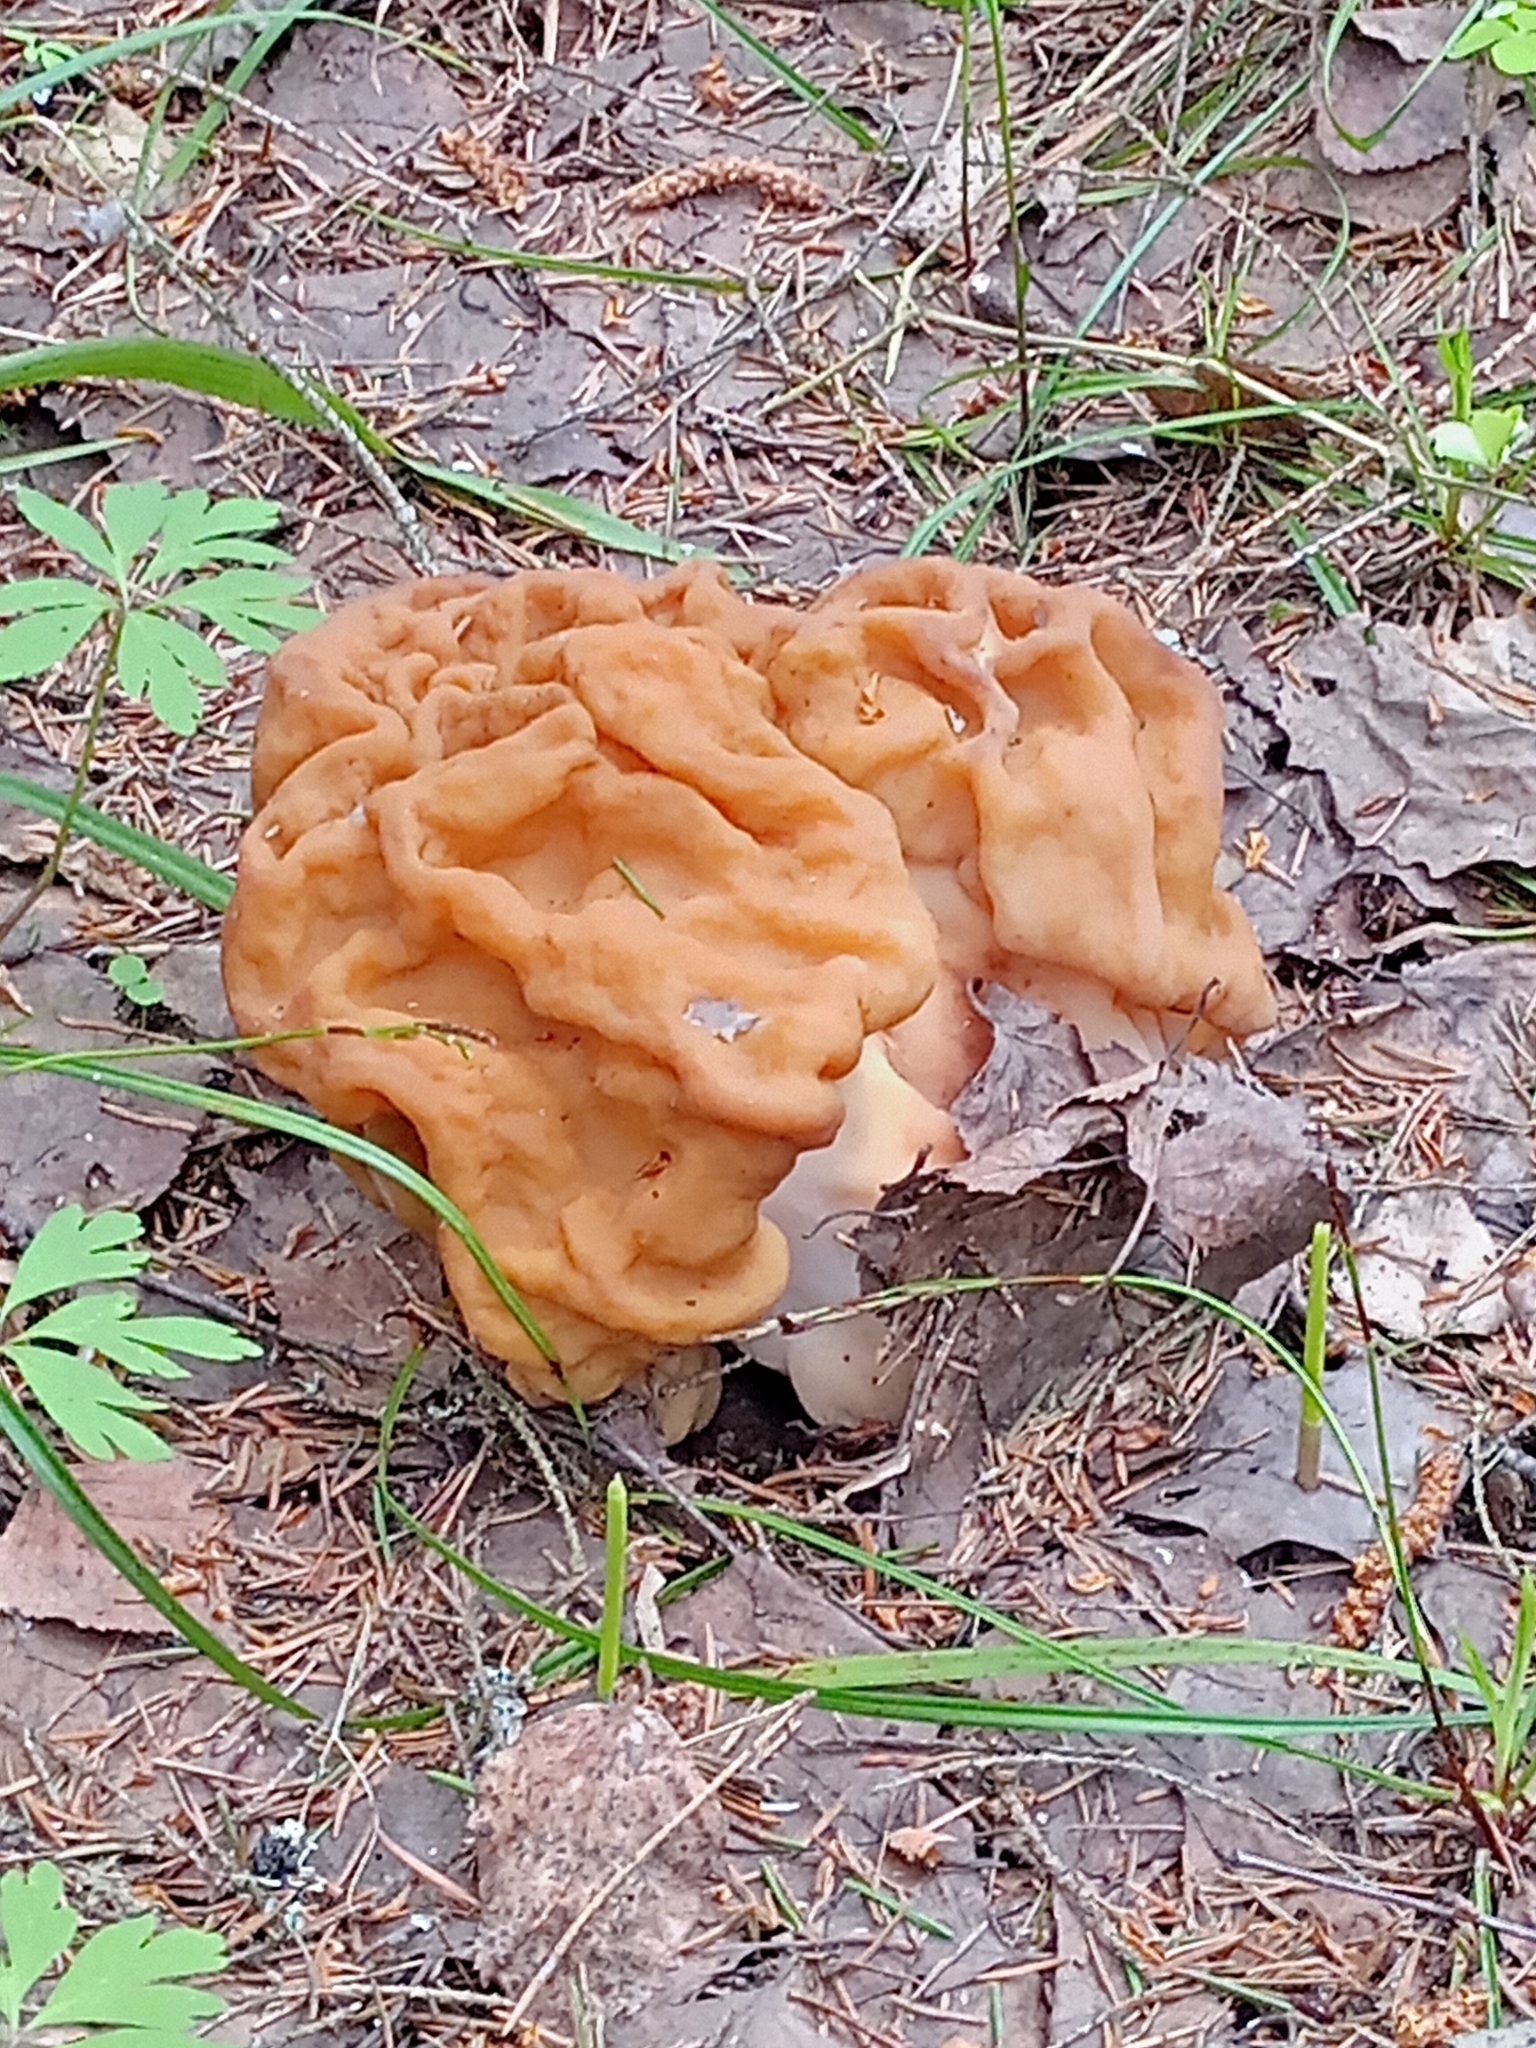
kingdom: Fungi
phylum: Ascomycota
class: Pezizomycetes
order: Pezizales
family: Discinaceae
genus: Gyromitra
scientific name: Gyromitra gigas
